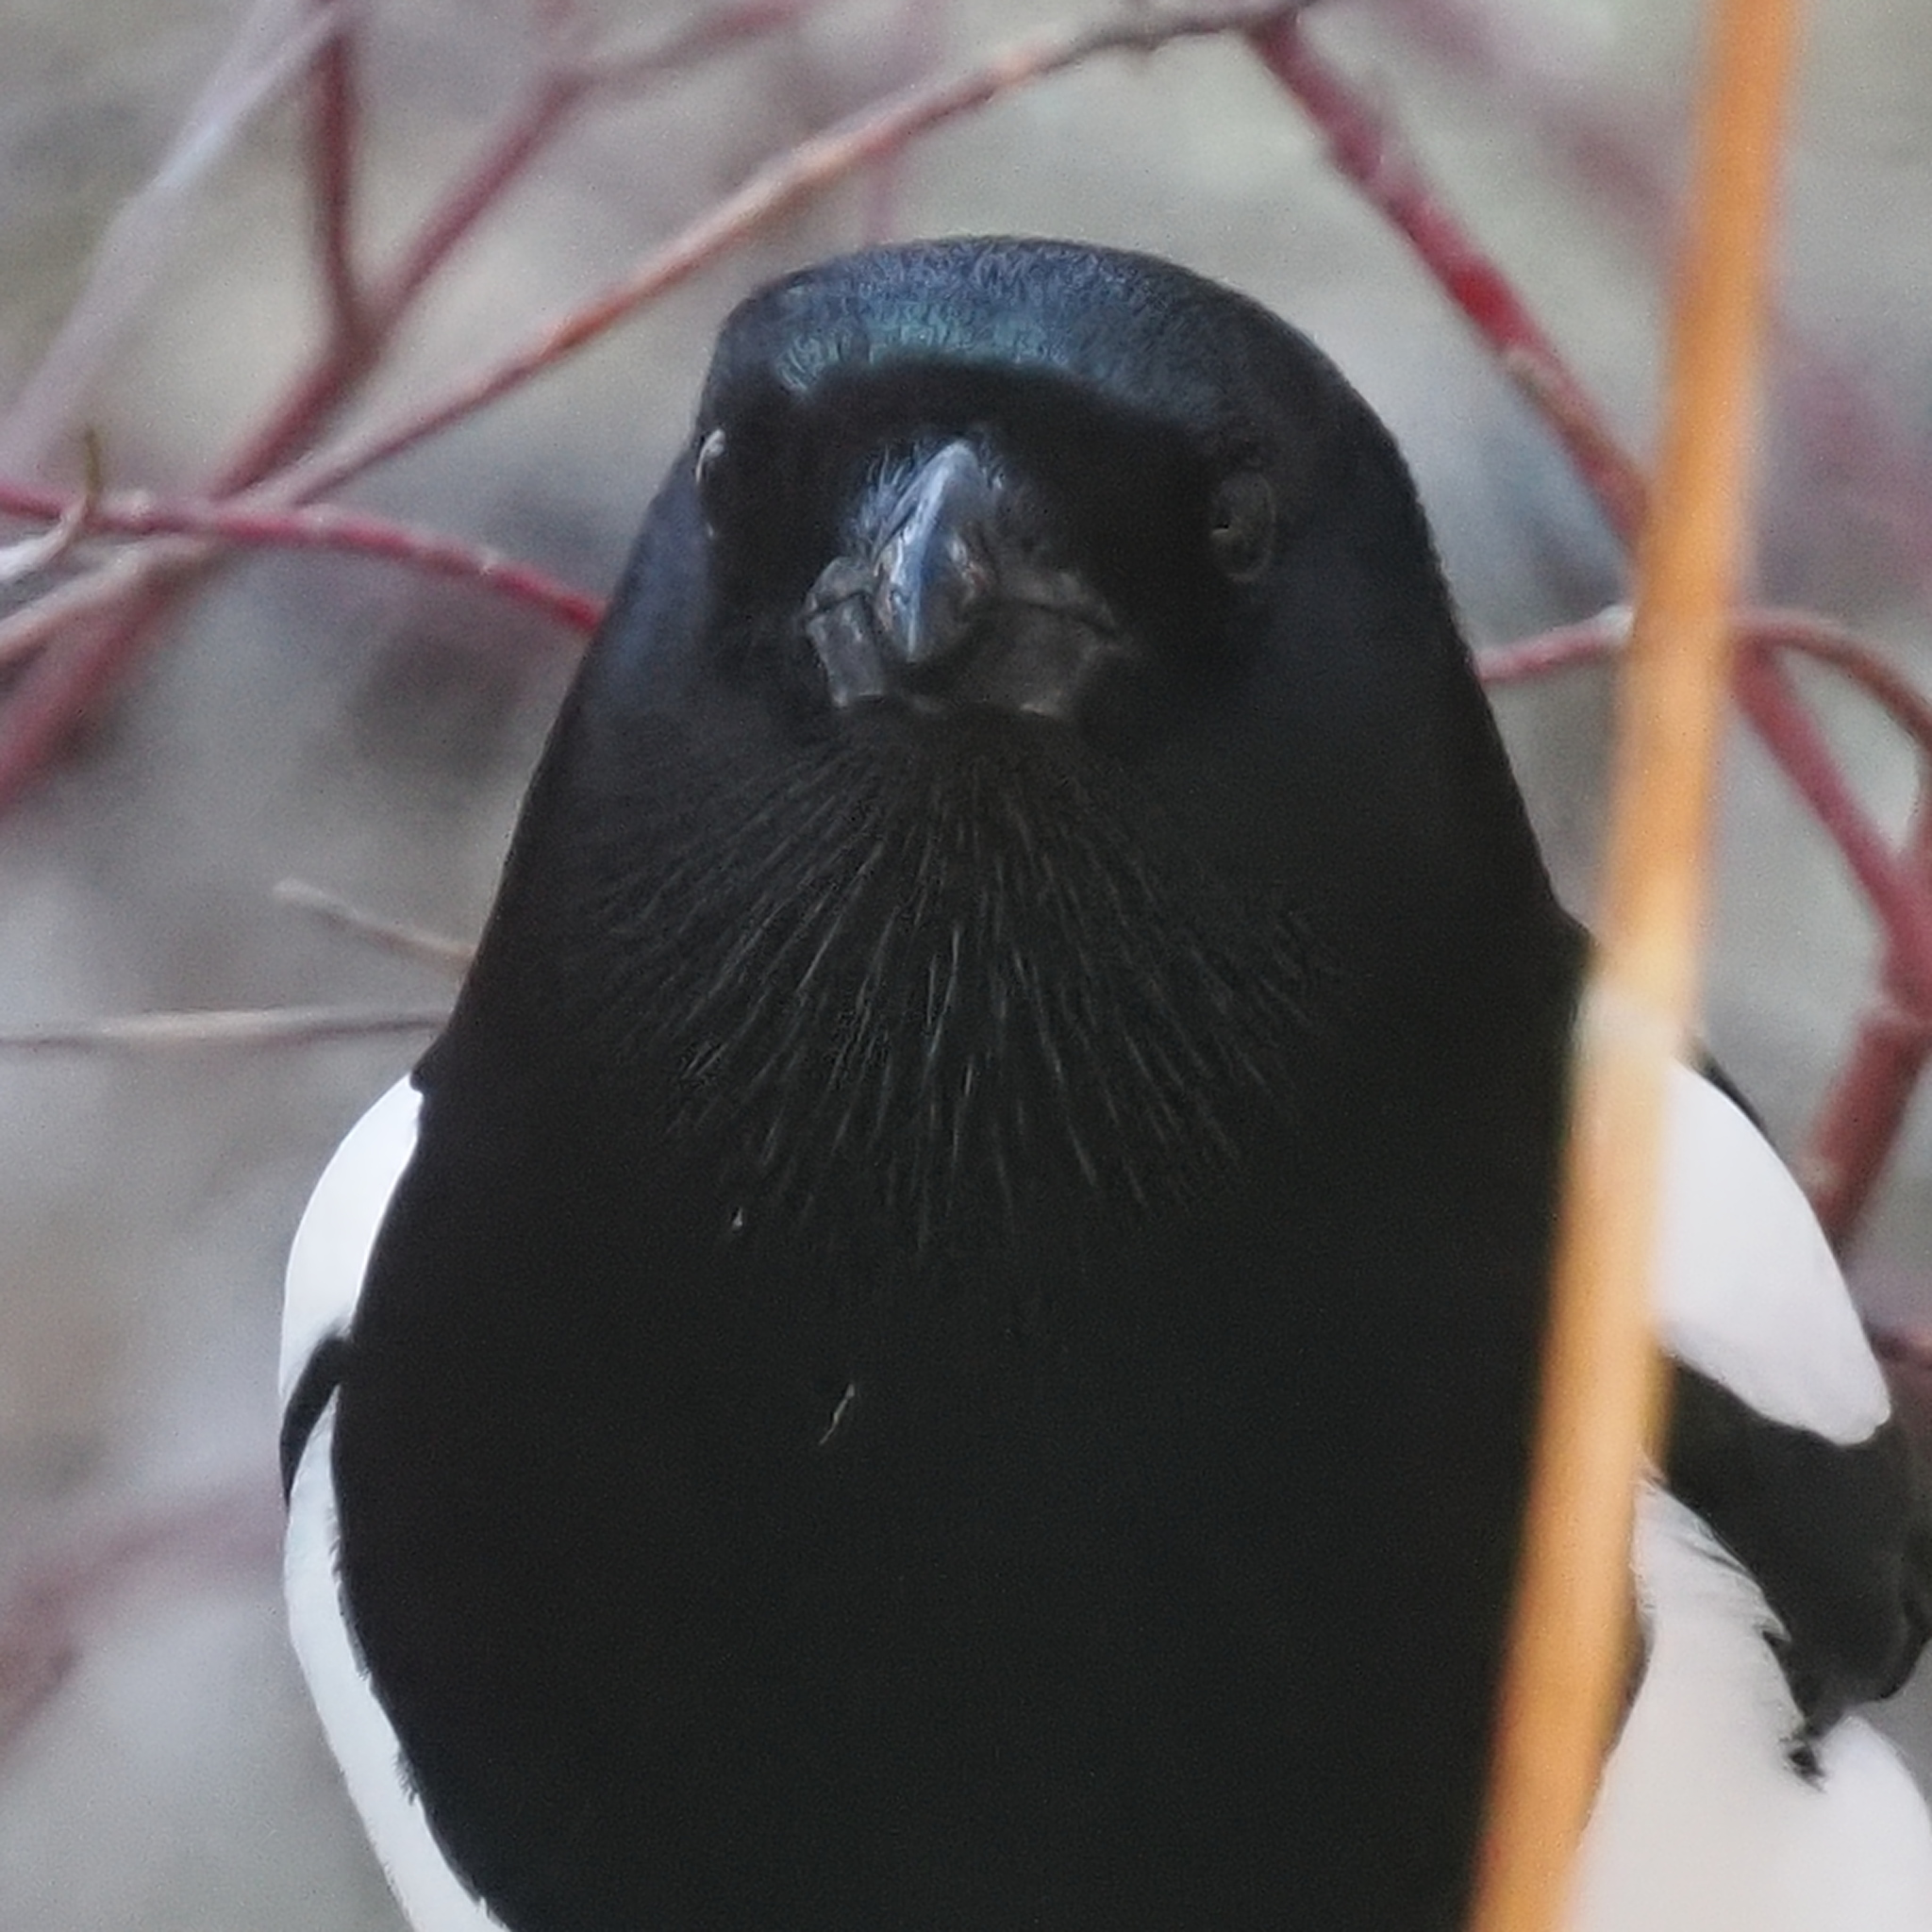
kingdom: Animalia
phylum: Chordata
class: Aves
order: Passeriformes
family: Corvidae
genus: Pica
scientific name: Pica hudsonia
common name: Black-billed magpie
